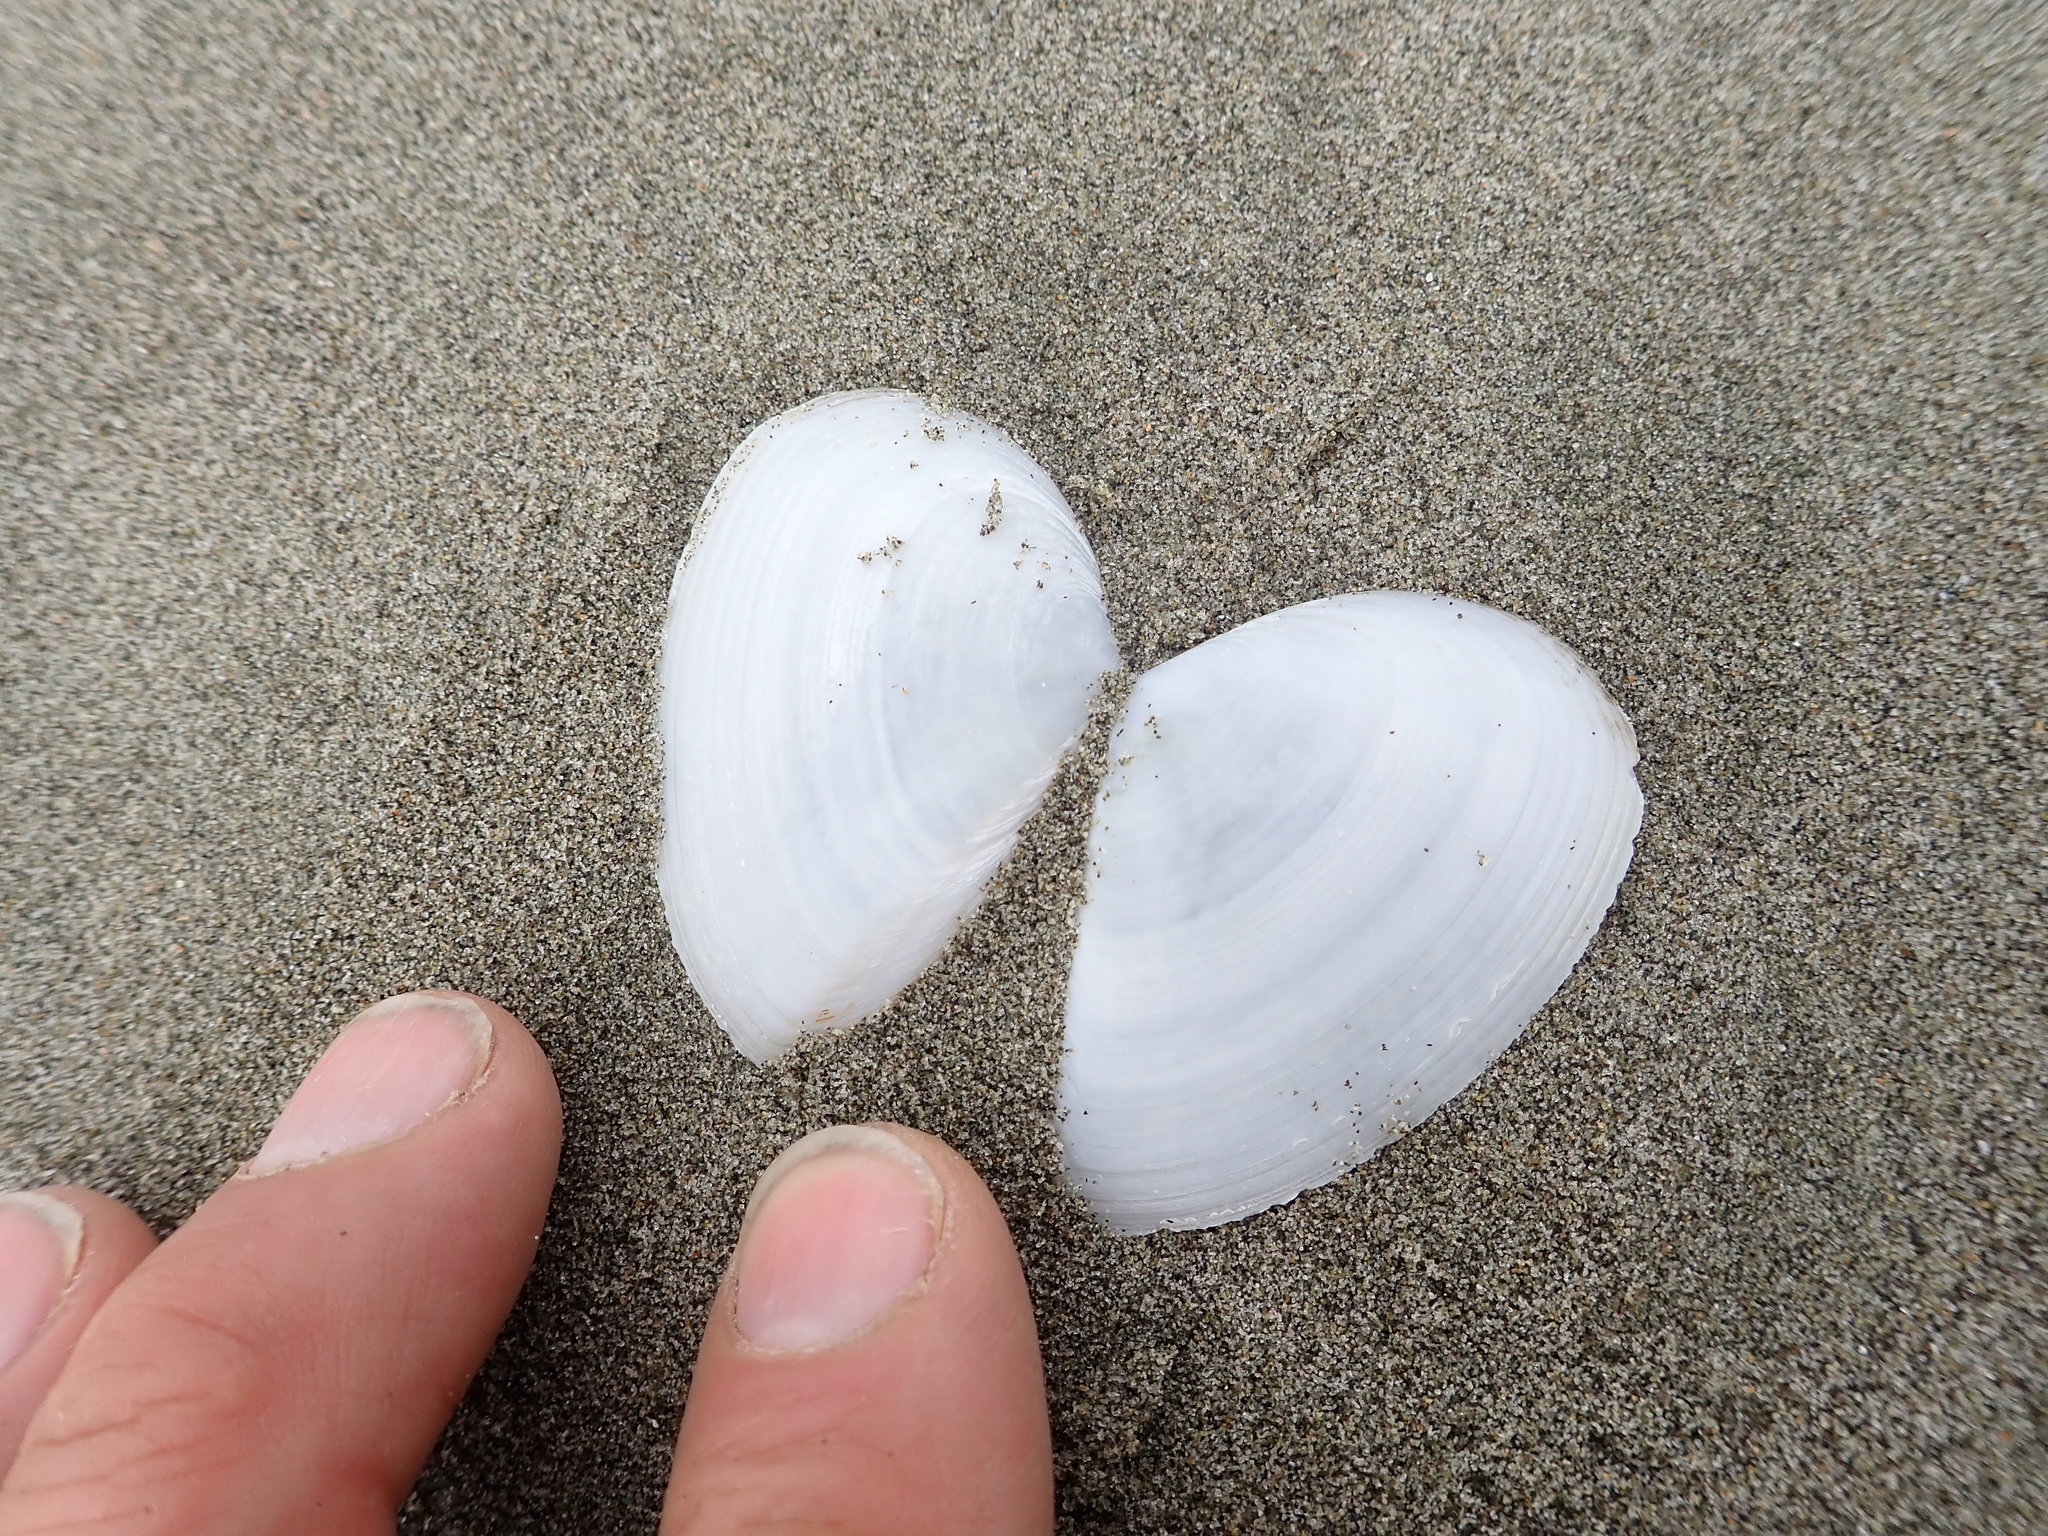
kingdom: Animalia
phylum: Mollusca
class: Bivalvia
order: Cardiida
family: Tellinidae
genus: Bartschicoma
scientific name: Bartschicoma gaimardi
